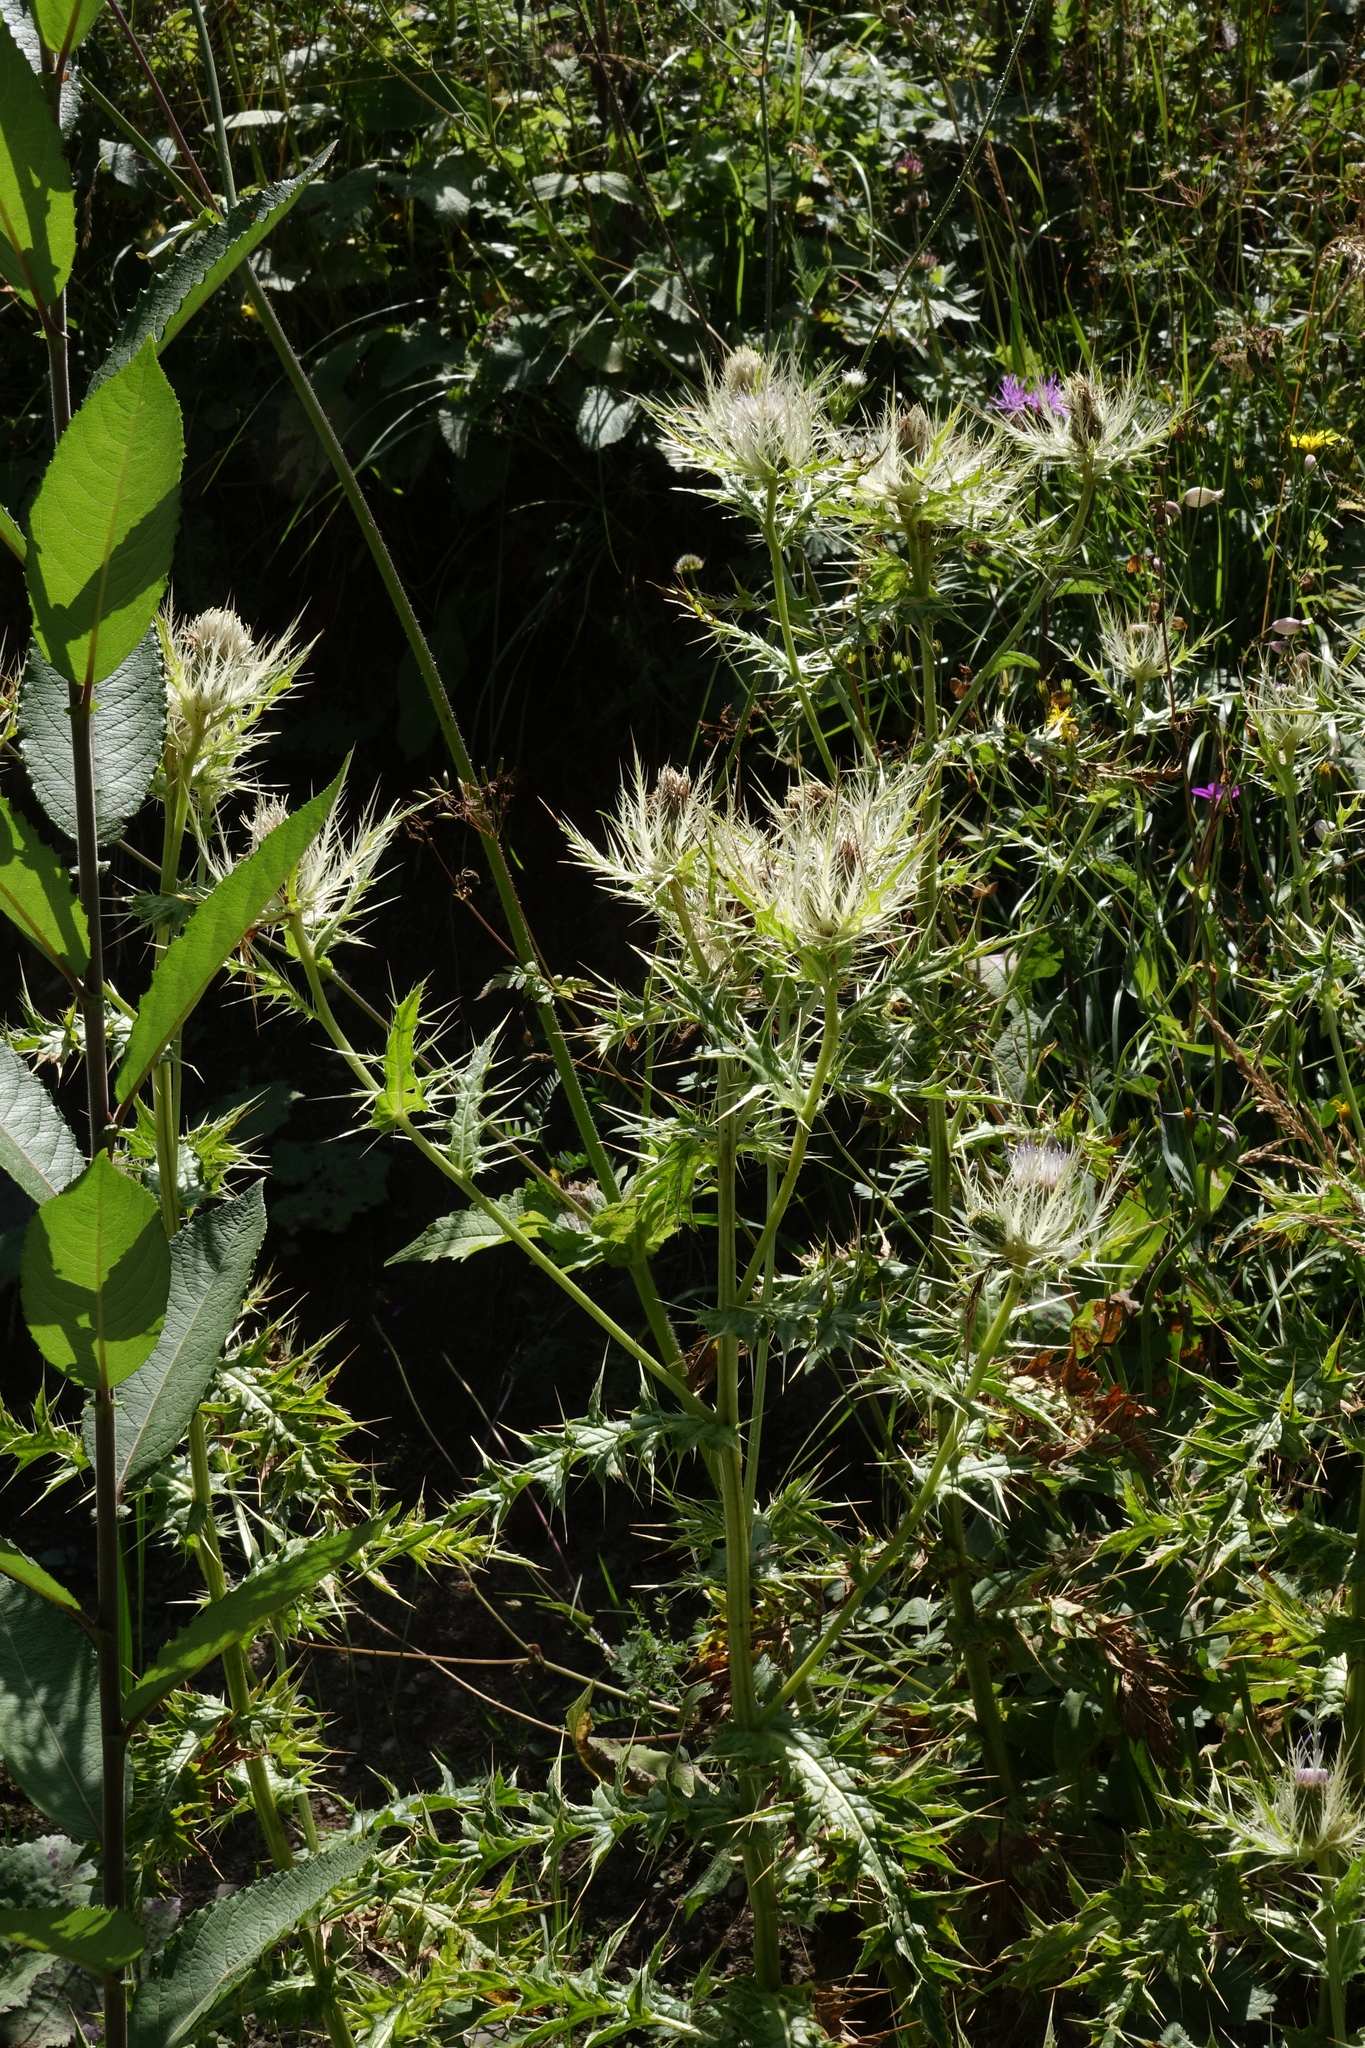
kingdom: Plantae
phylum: Tracheophyta
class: Magnoliopsida
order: Asterales
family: Asteraceae
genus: Cirsium
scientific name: Cirsium obvallatum
